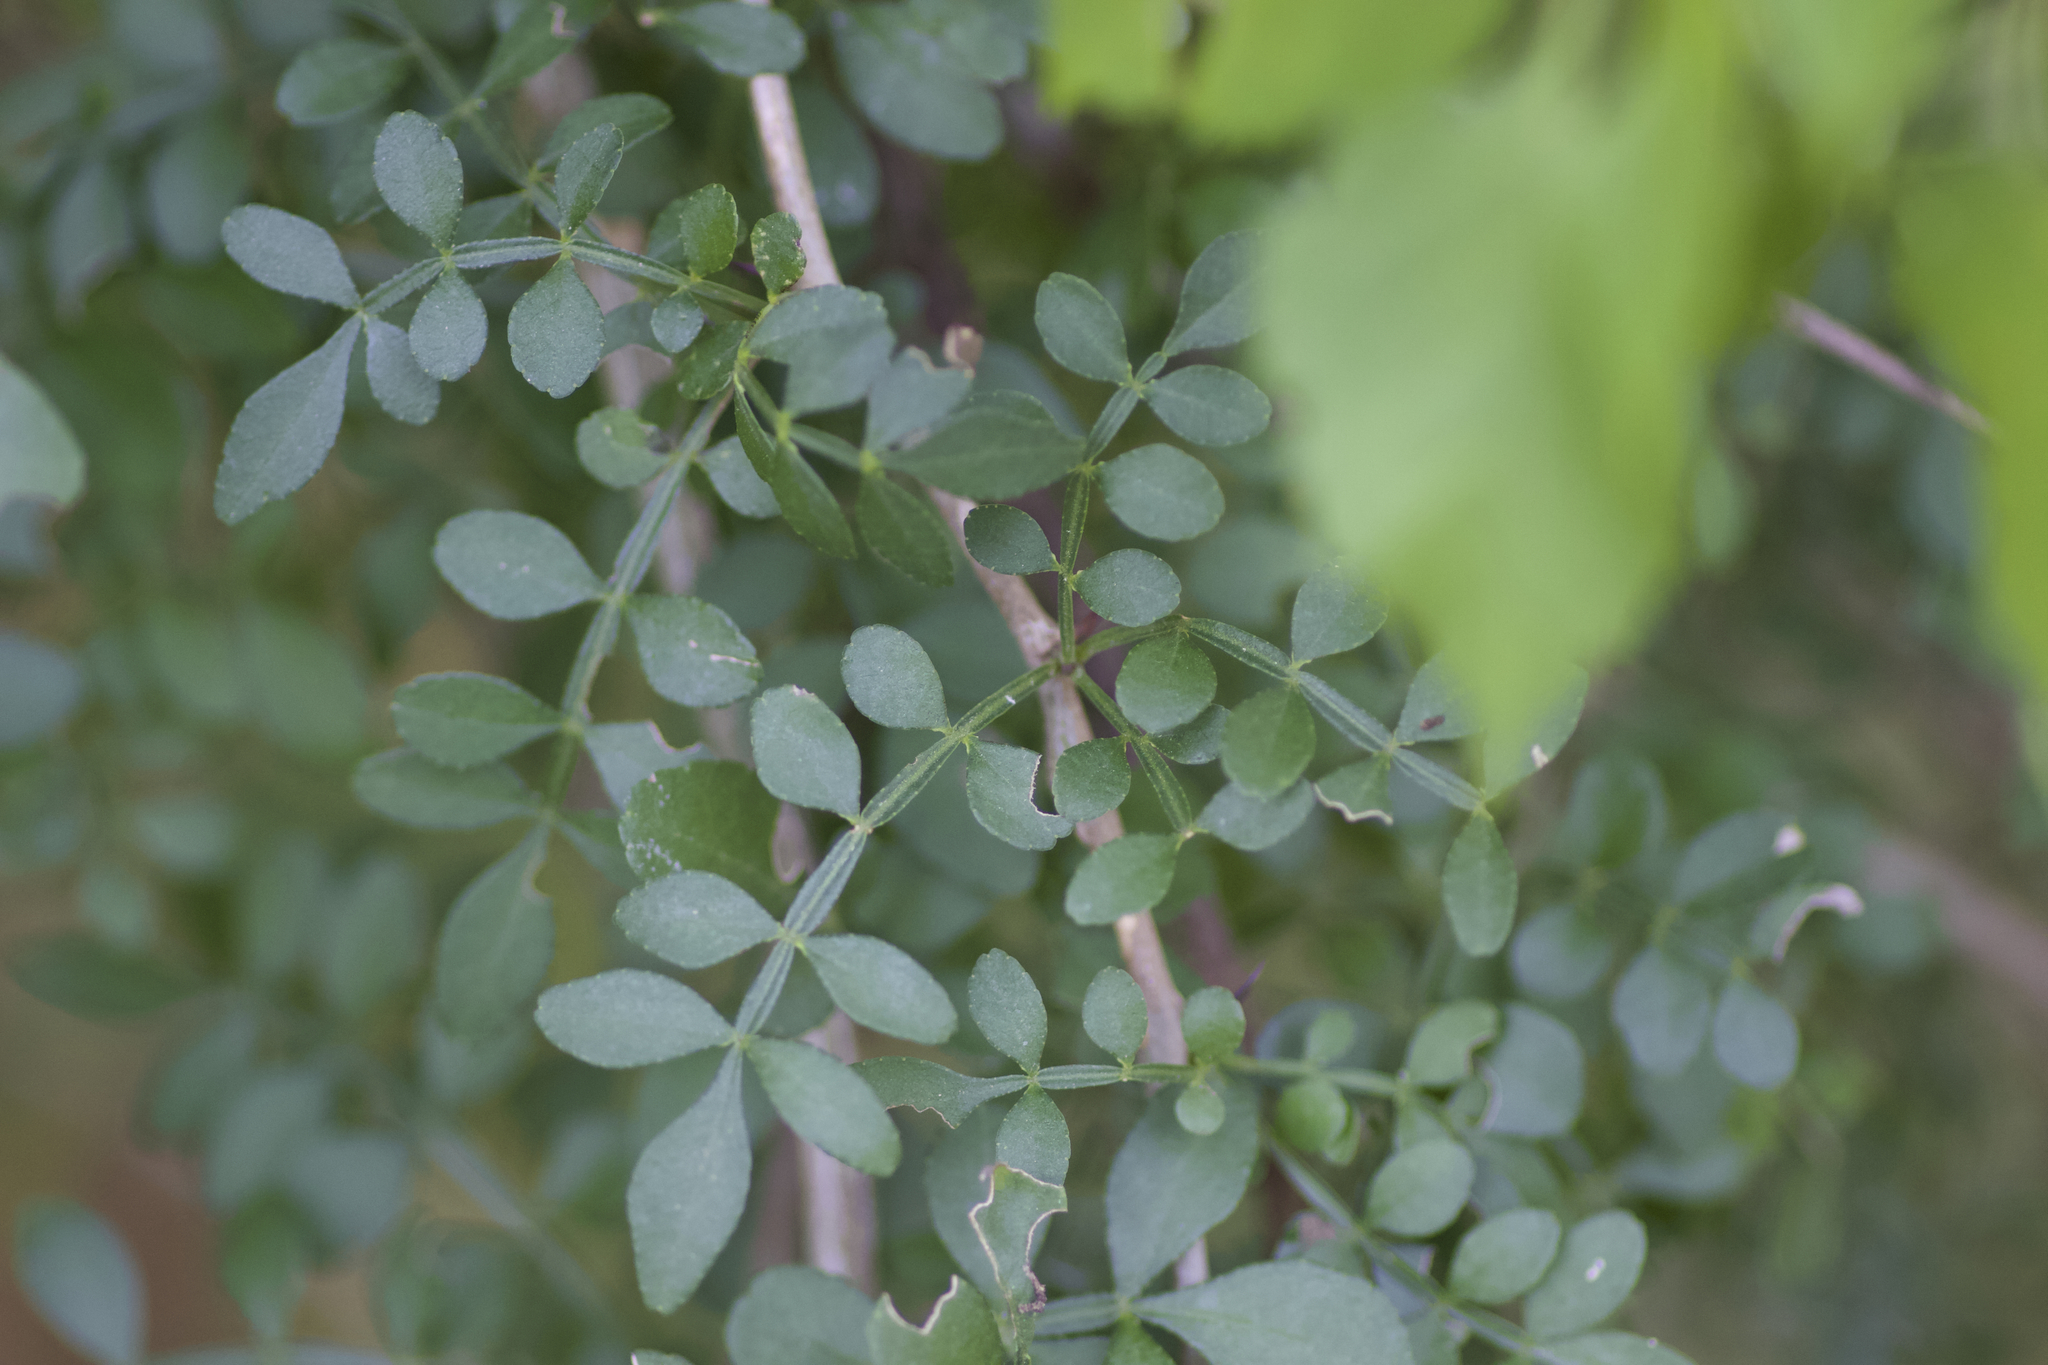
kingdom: Plantae
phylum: Tracheophyta
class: Magnoliopsida
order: Sapindales
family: Rutaceae
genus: Zanthoxylum
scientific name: Zanthoxylum fagara
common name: Lime prickly-ash
